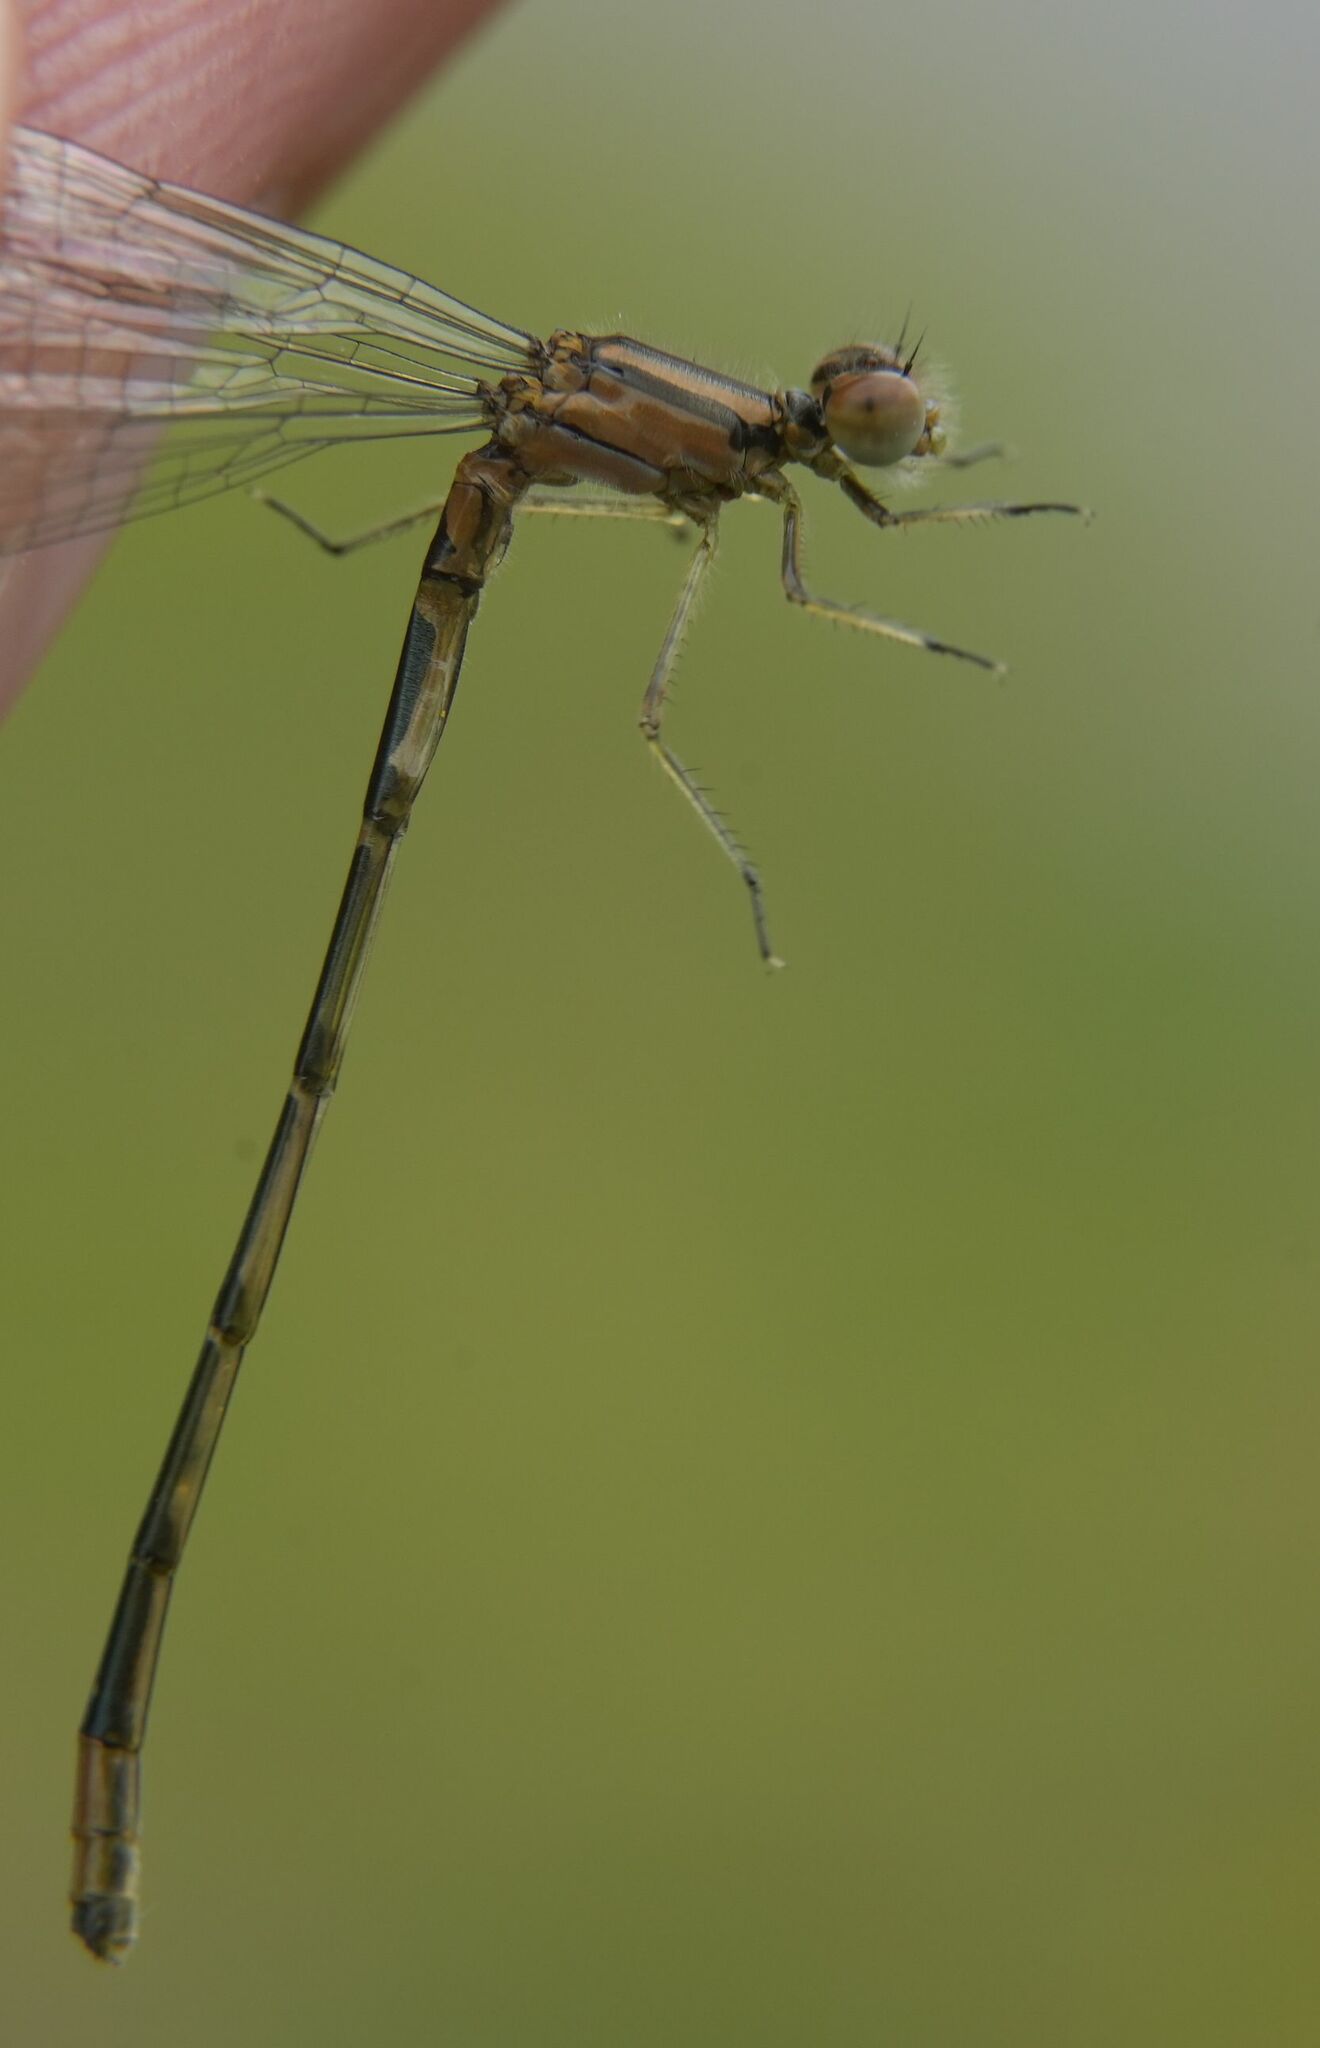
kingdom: Animalia
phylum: Arthropoda
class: Insecta
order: Odonata
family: Coenagrionidae
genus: Enallagma
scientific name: Enallagma geminatum
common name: Skimming bluet
